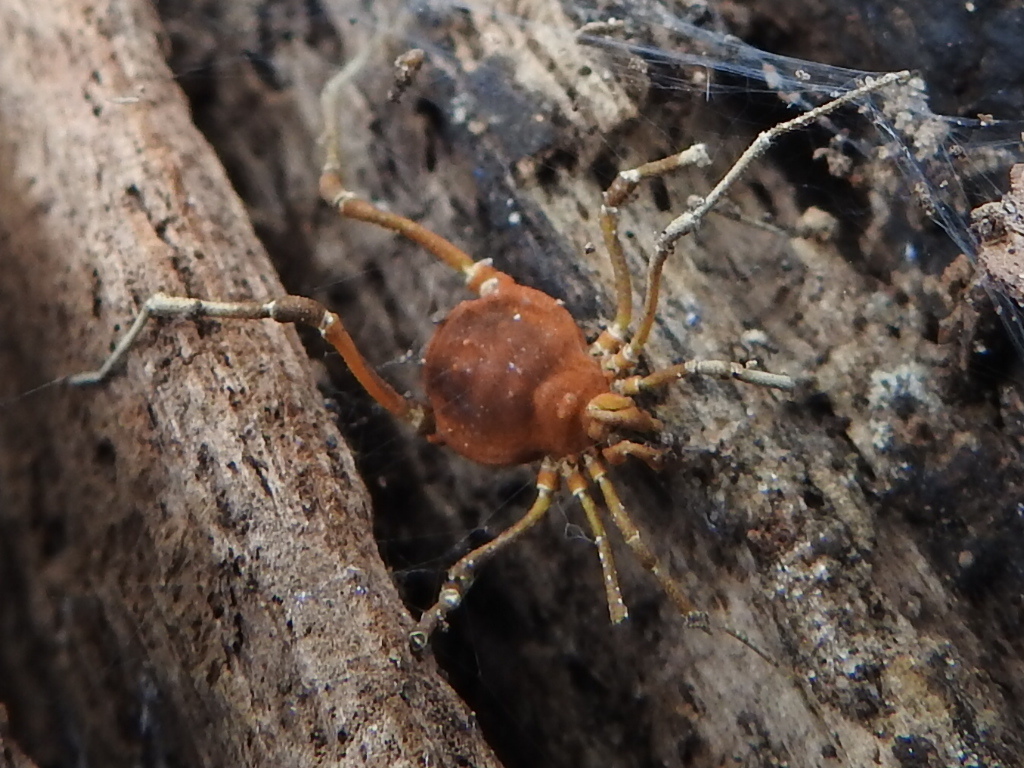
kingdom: Animalia
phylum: Arthropoda
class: Arachnida
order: Opiliones
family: Cosmetidae
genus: Libitioides
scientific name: Libitioides sayi
